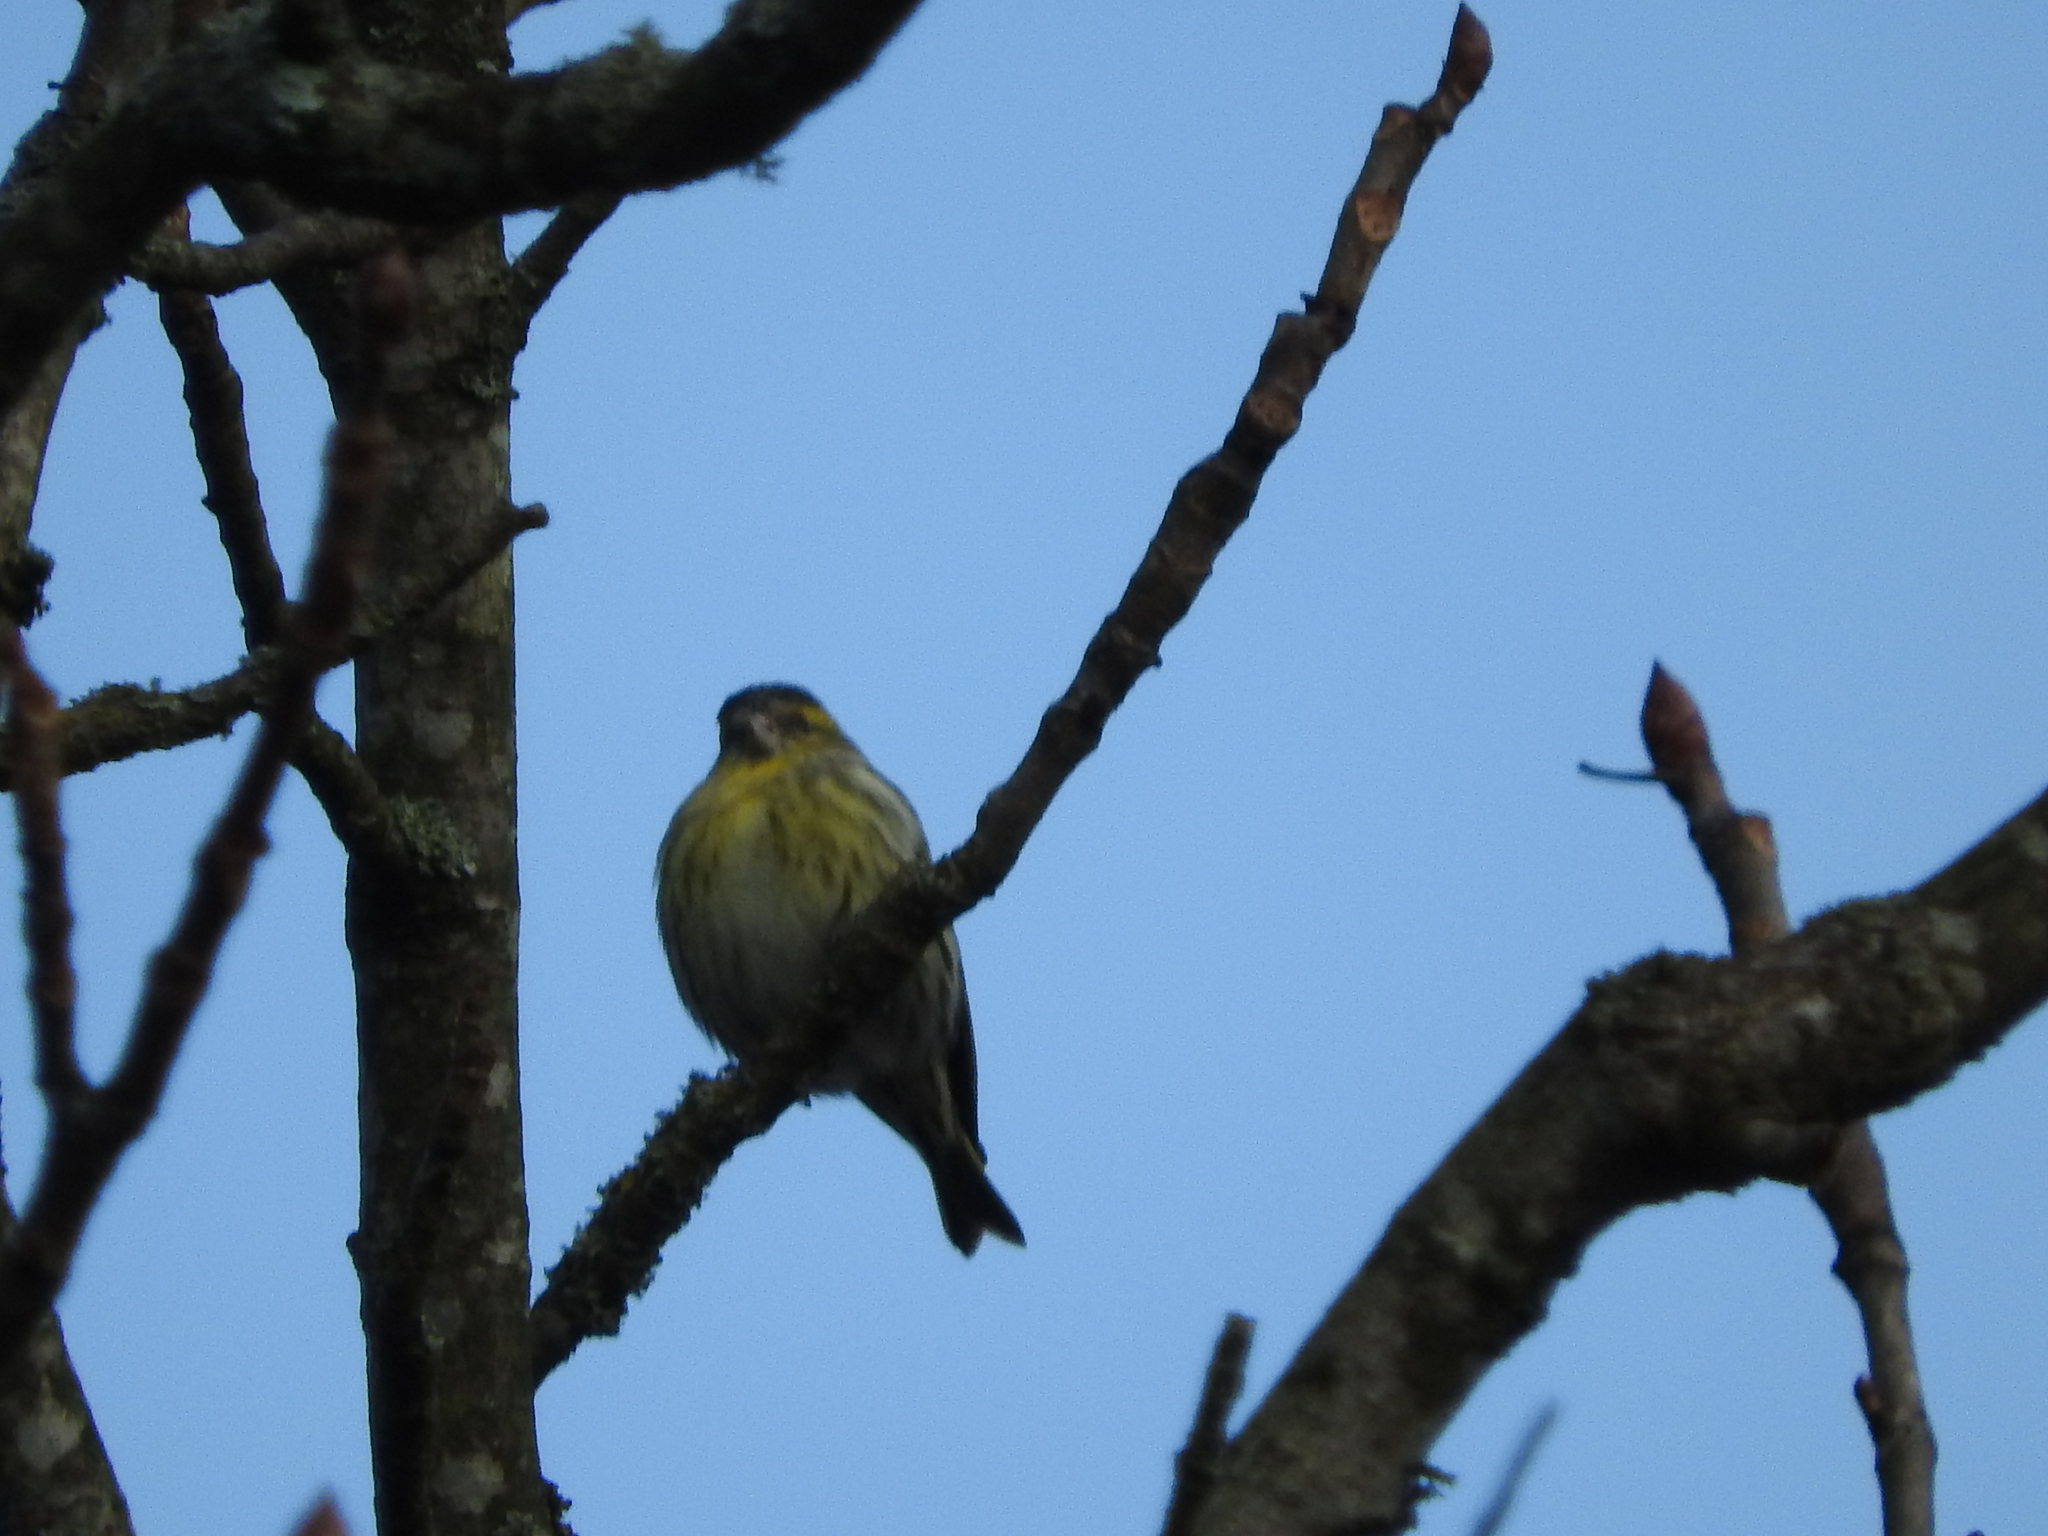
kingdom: Animalia
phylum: Chordata
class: Aves
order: Passeriformes
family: Fringillidae
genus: Spinus
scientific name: Spinus spinus
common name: Eurasian siskin
